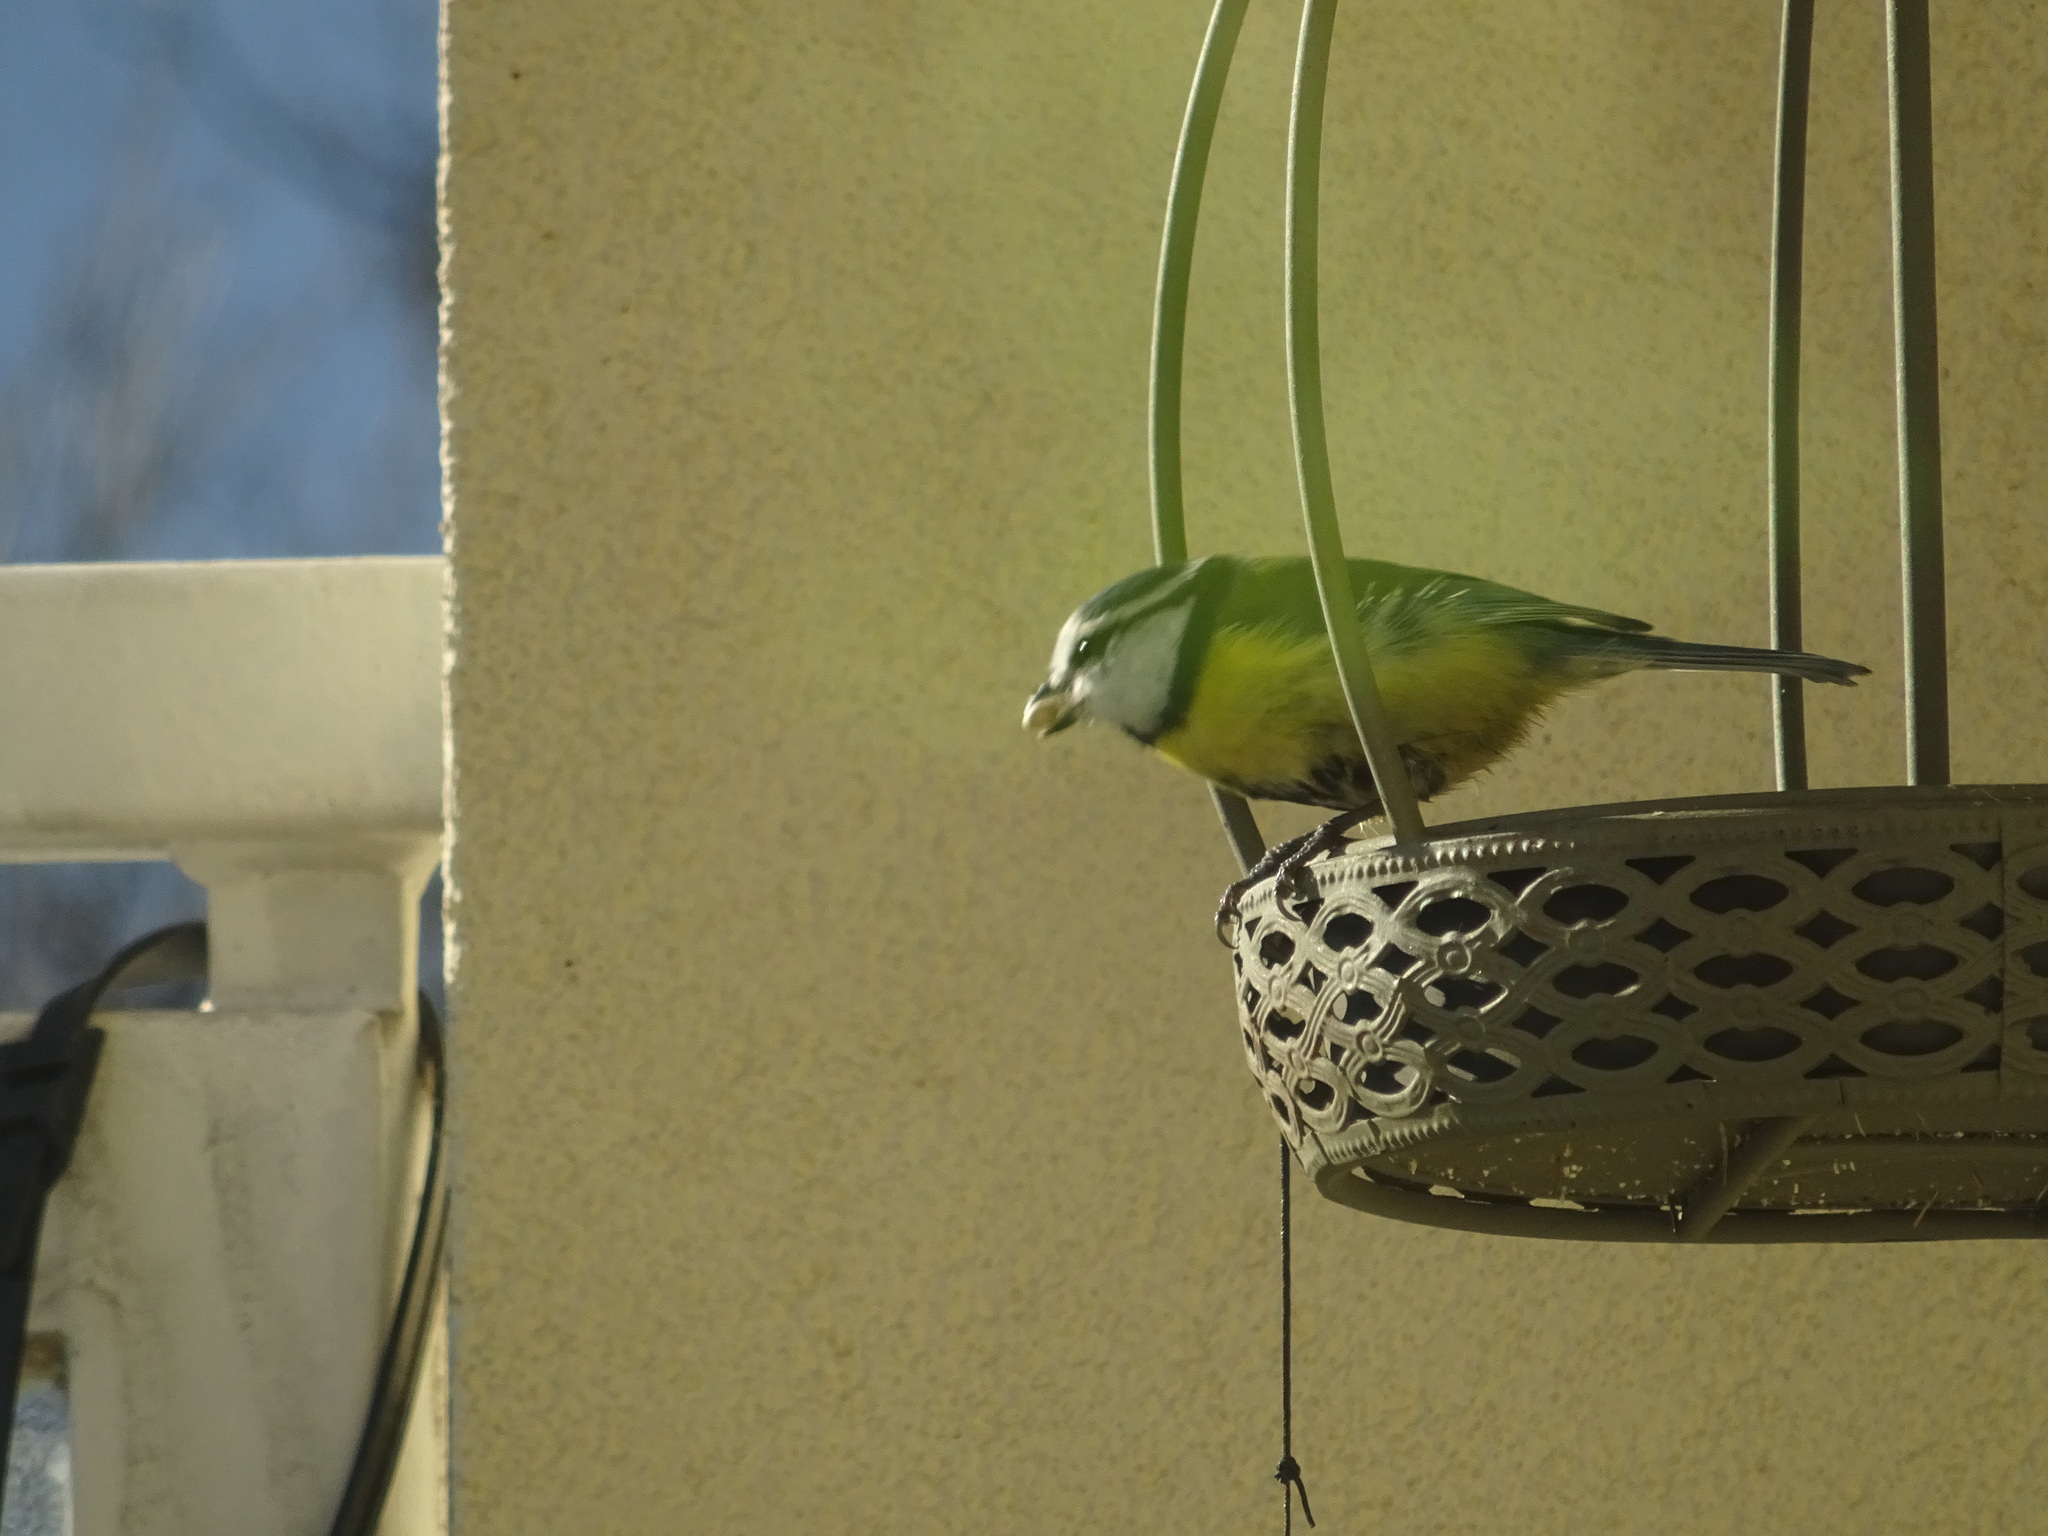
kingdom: Animalia
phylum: Chordata
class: Aves
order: Passeriformes
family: Paridae
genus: Cyanistes
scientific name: Cyanistes caeruleus
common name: Eurasian blue tit
